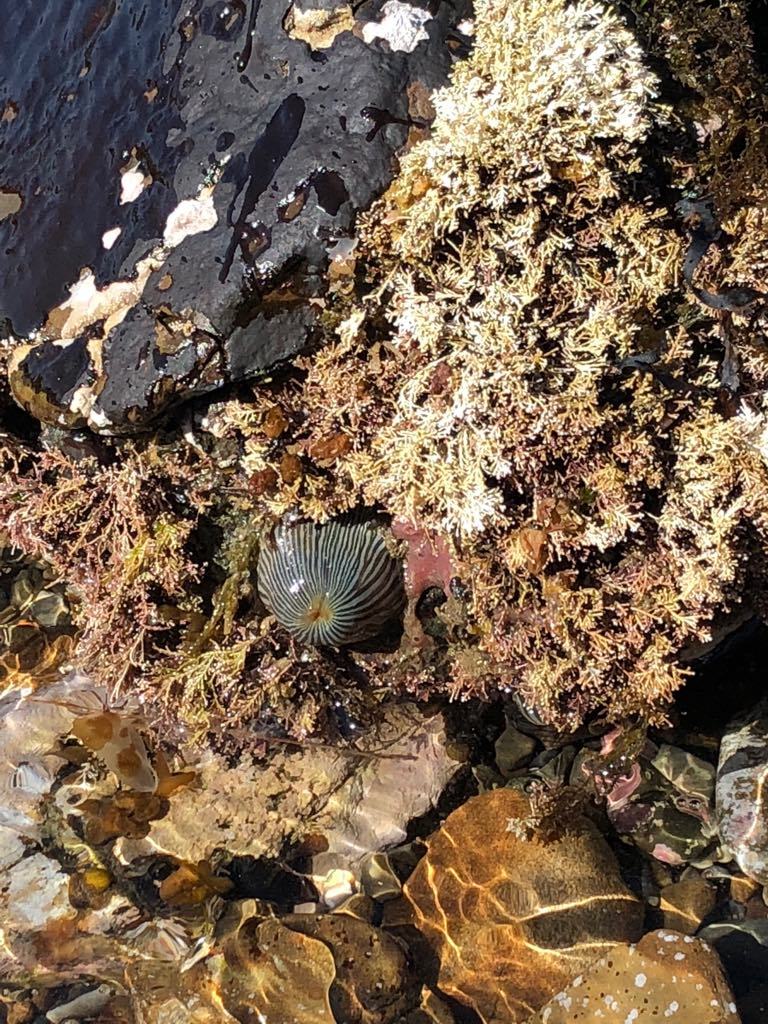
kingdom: Animalia
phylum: Cnidaria
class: Anthozoa
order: Actiniaria
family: Diadumenidae
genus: Diadumene
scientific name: Diadumene neozelanica
